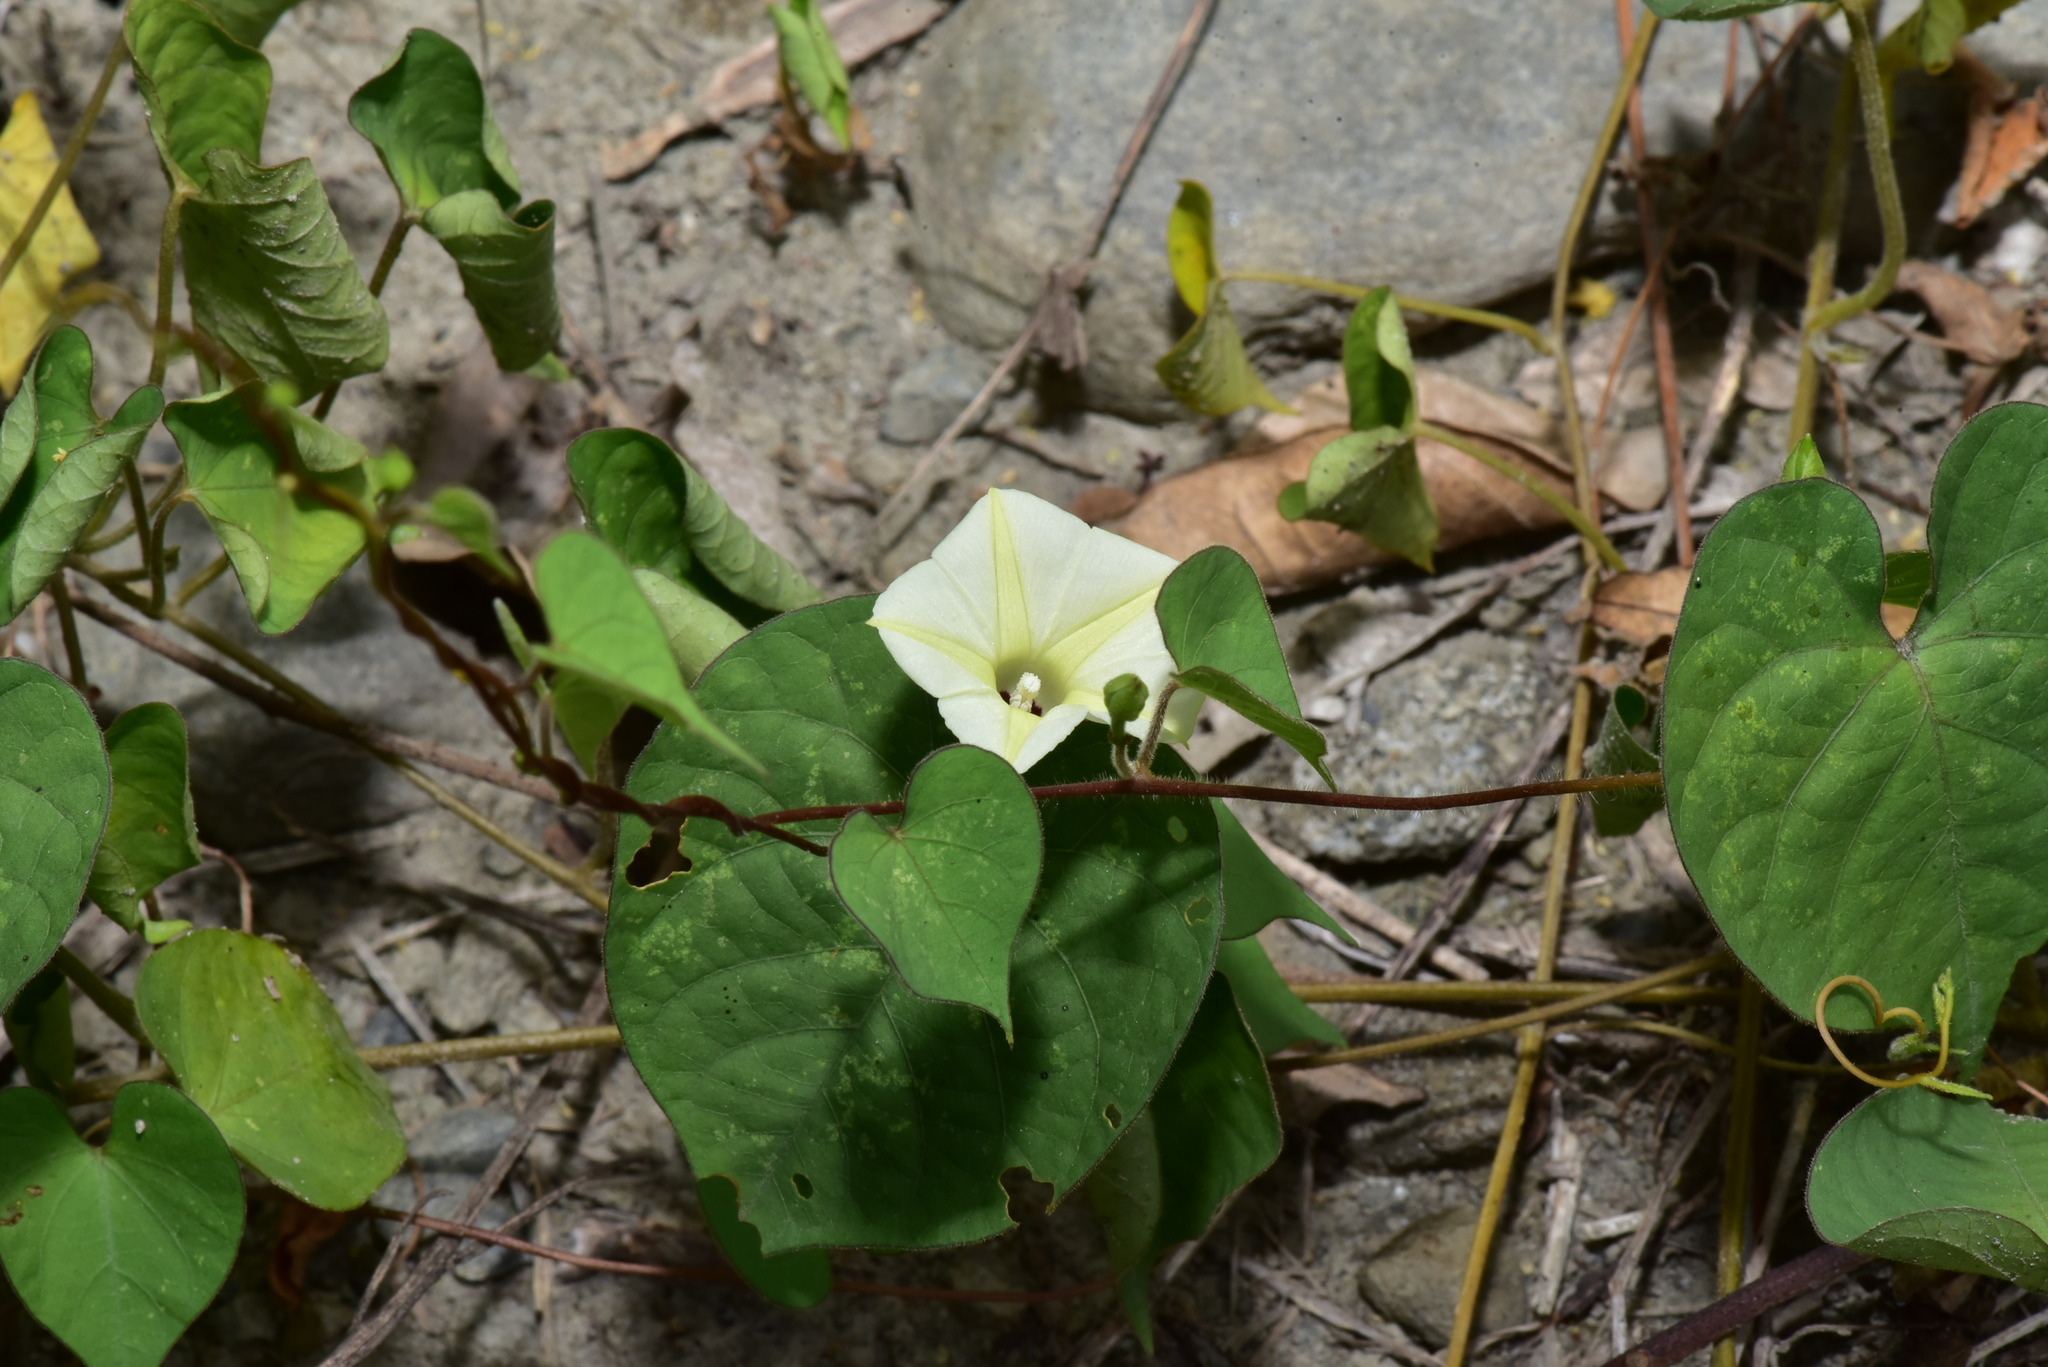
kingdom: Plantae
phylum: Tracheophyta
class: Magnoliopsida
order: Solanales
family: Convolvulaceae
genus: Ipomoea
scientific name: Ipomoea obscura
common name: Obscure morning-glory
